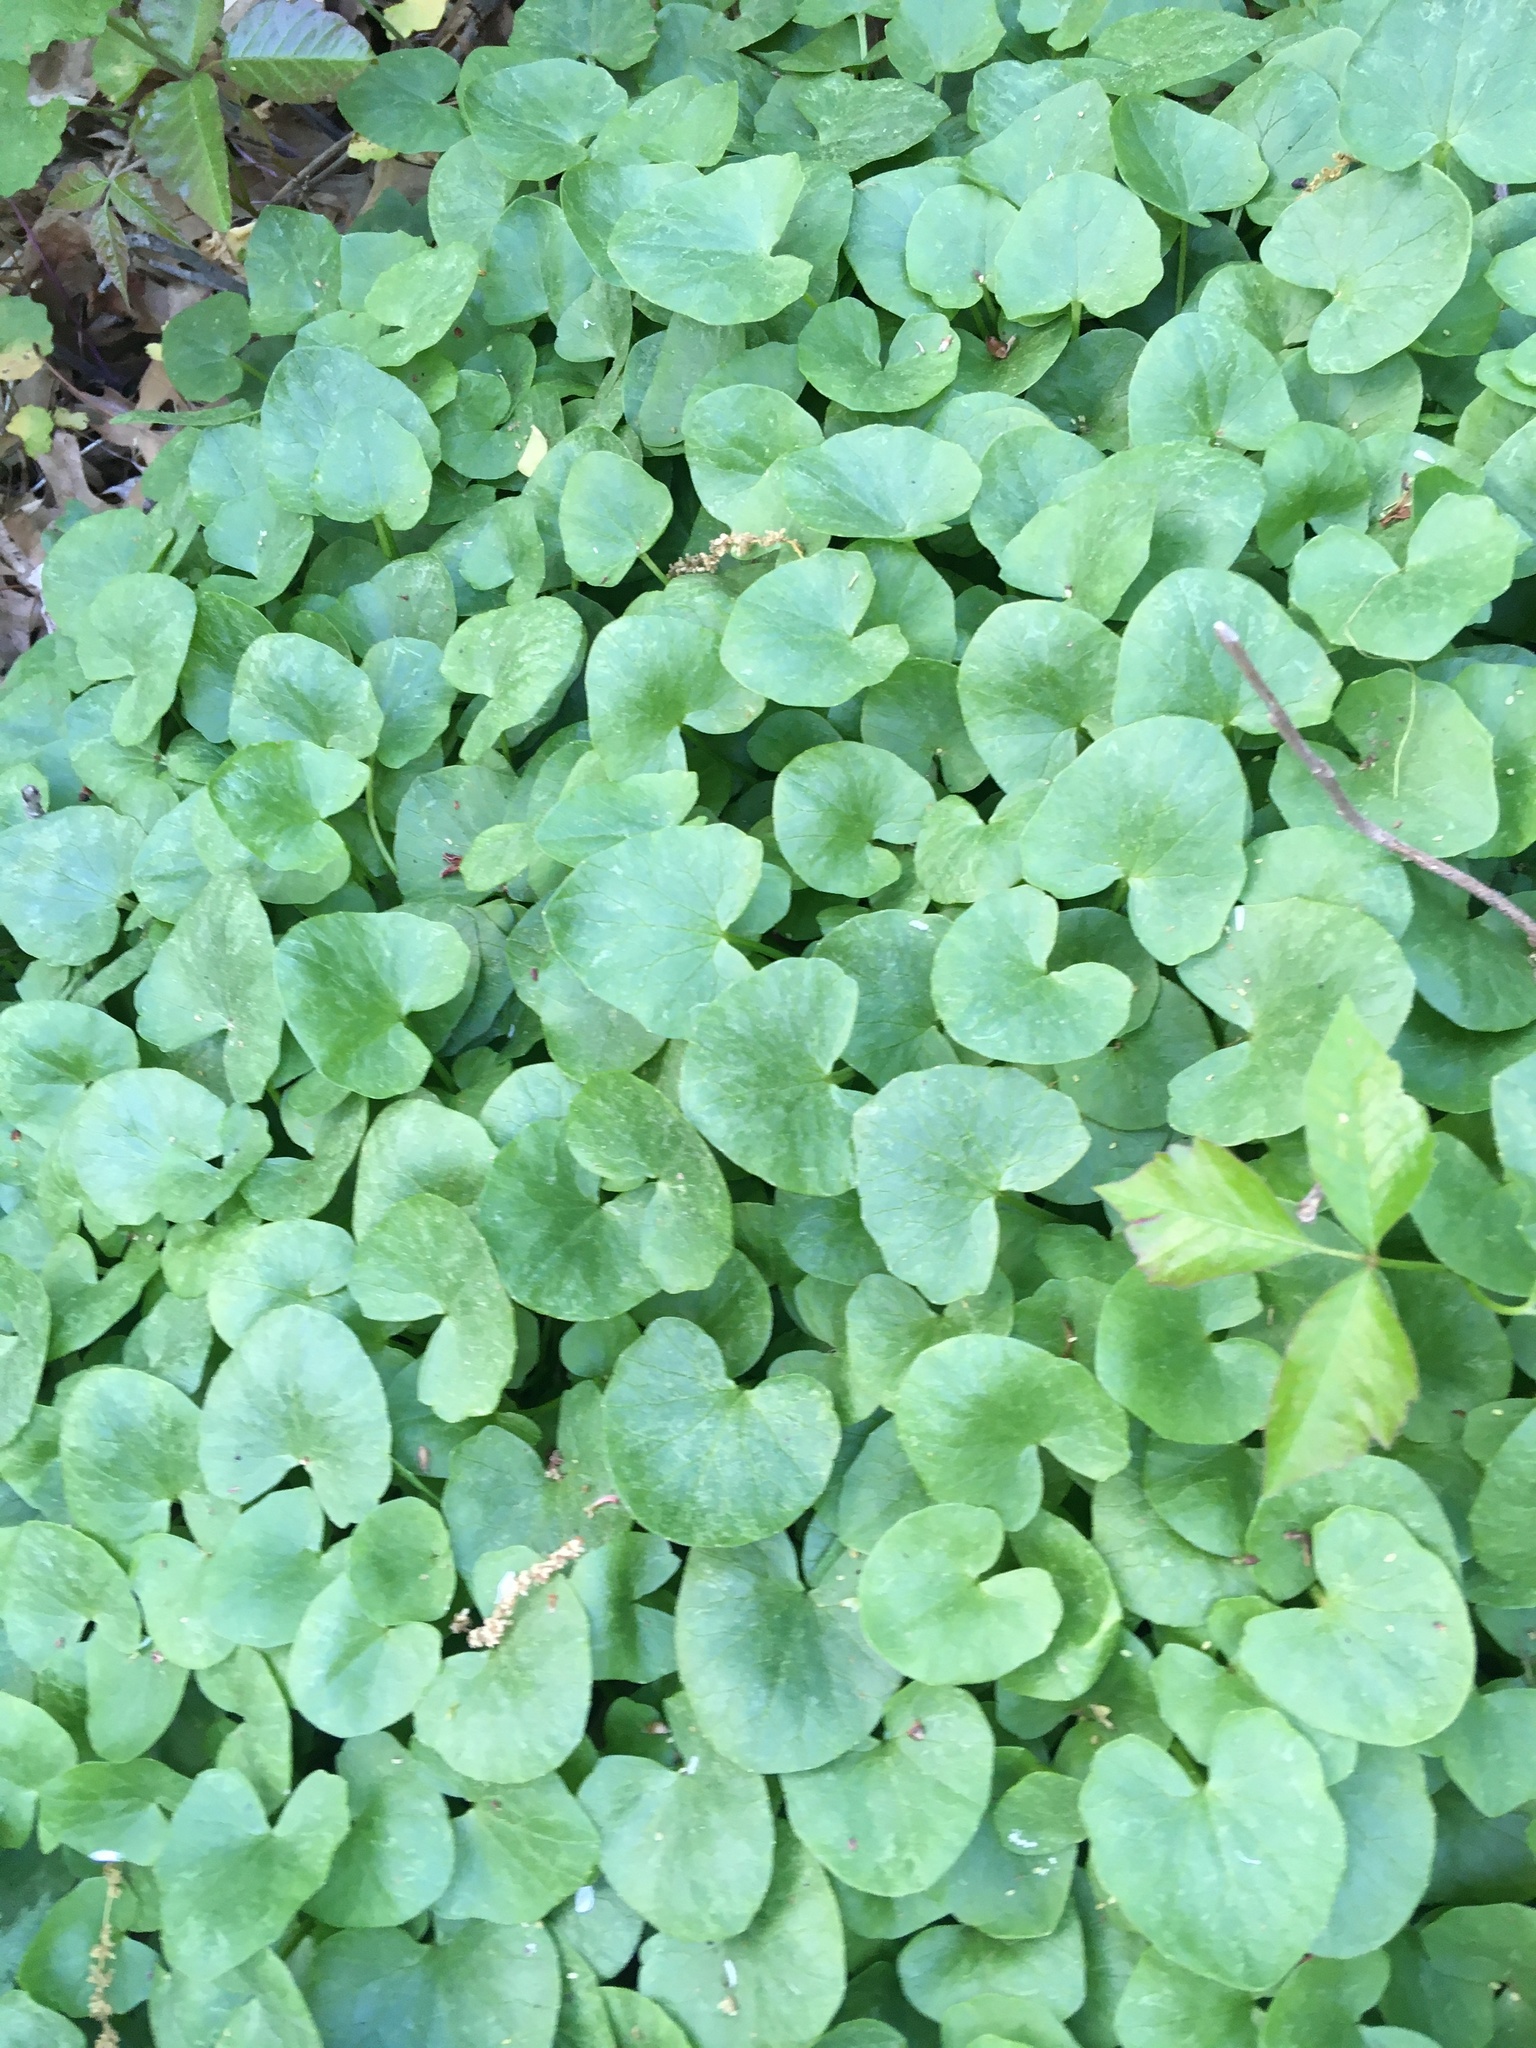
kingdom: Plantae
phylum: Tracheophyta
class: Magnoliopsida
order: Ranunculales
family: Ranunculaceae
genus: Ficaria
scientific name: Ficaria verna
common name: Lesser celandine
